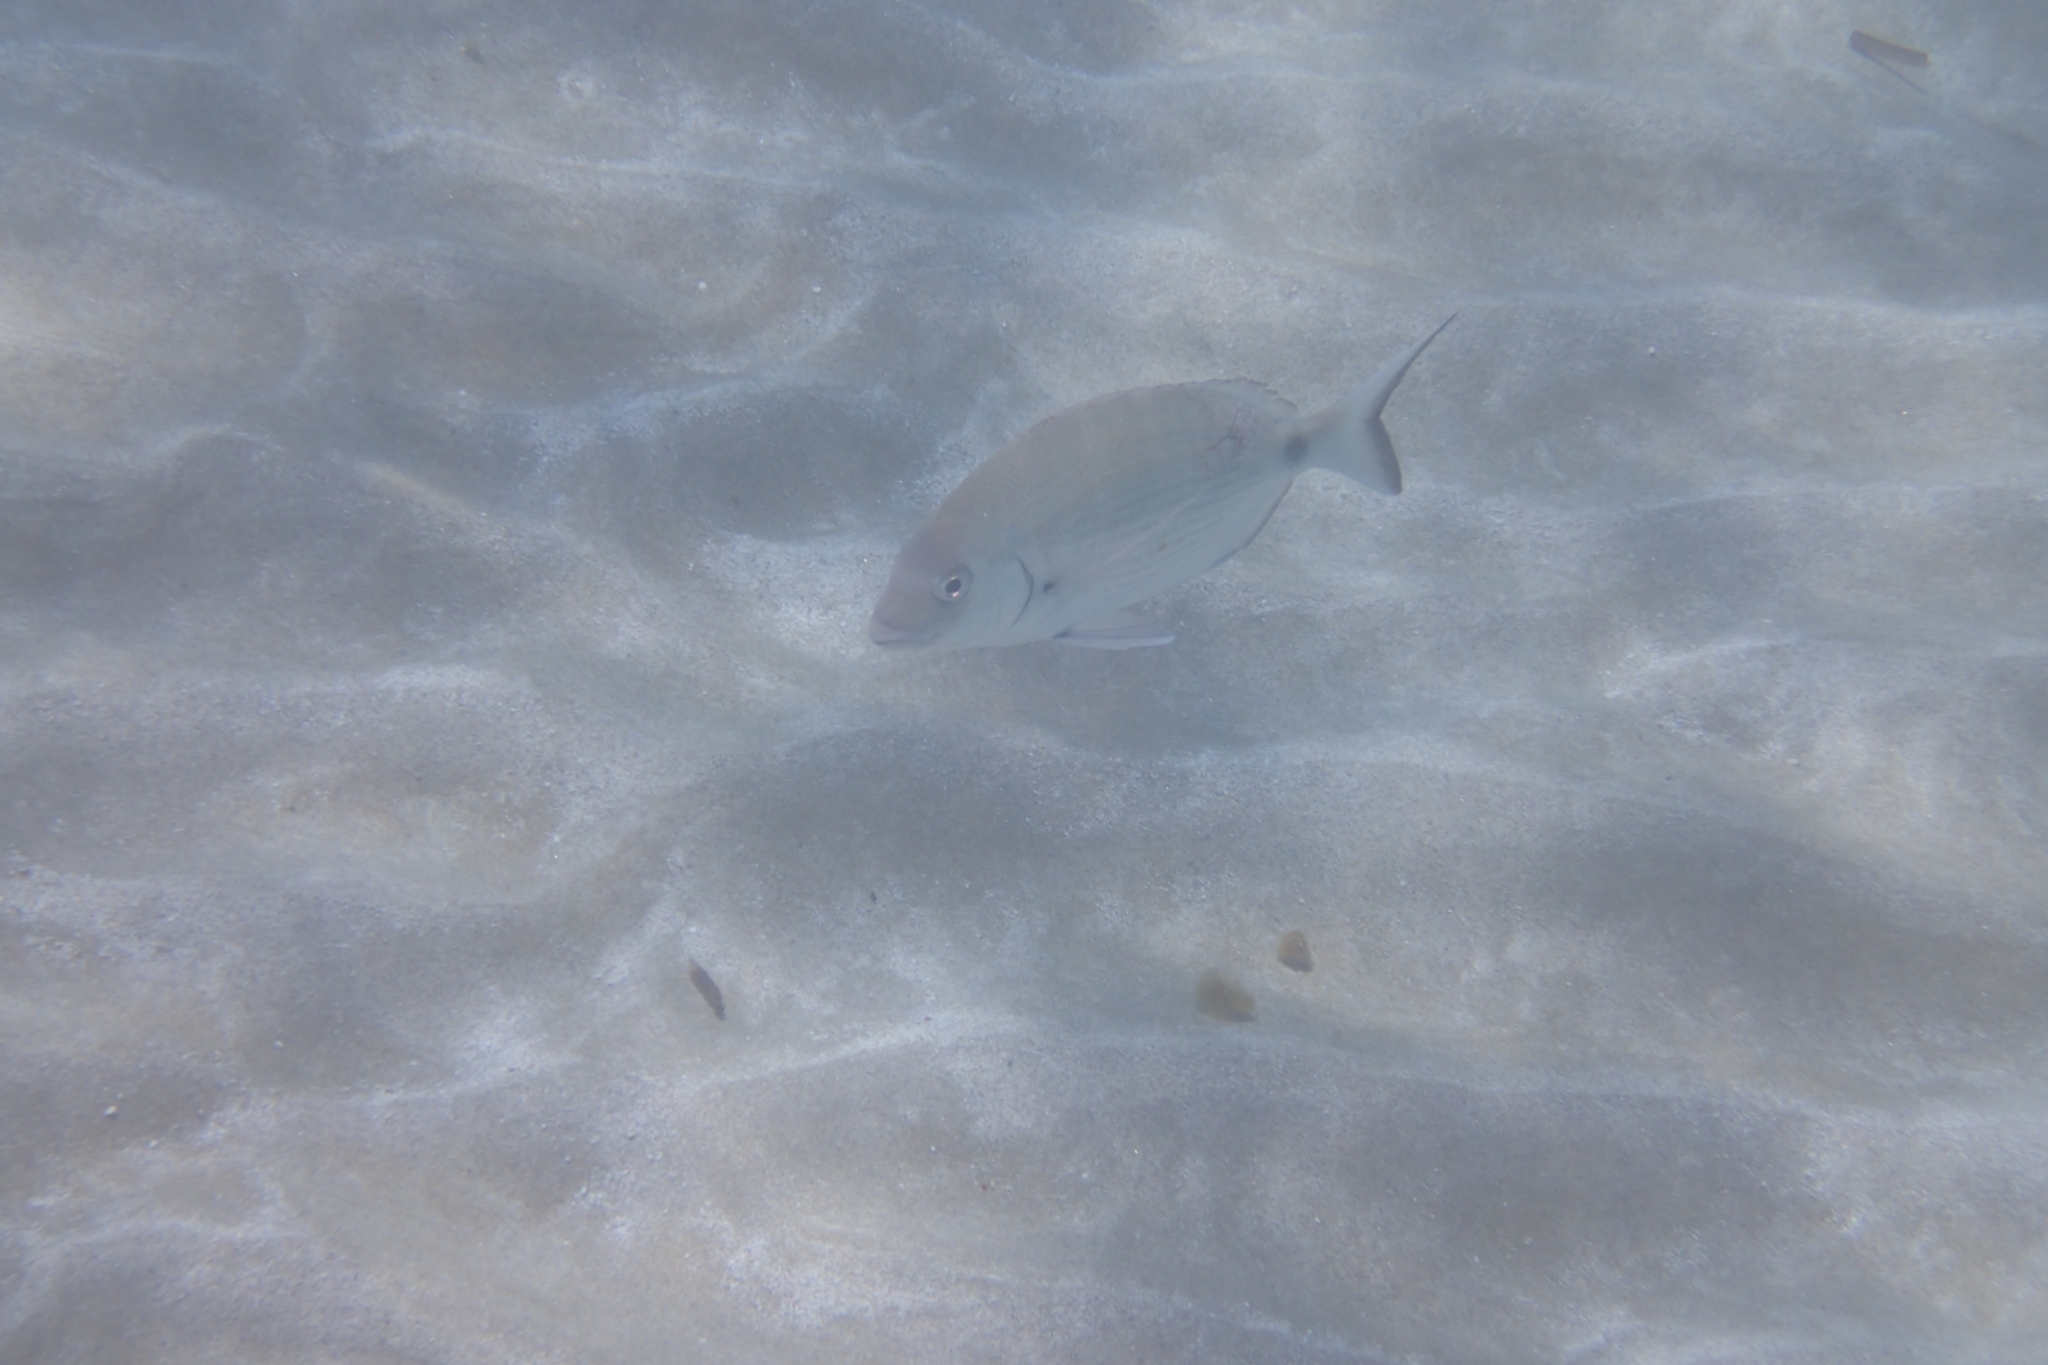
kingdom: Animalia
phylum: Chordata
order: Perciformes
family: Sparidae
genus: Diplodus
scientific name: Diplodus sargus
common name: White seabream
